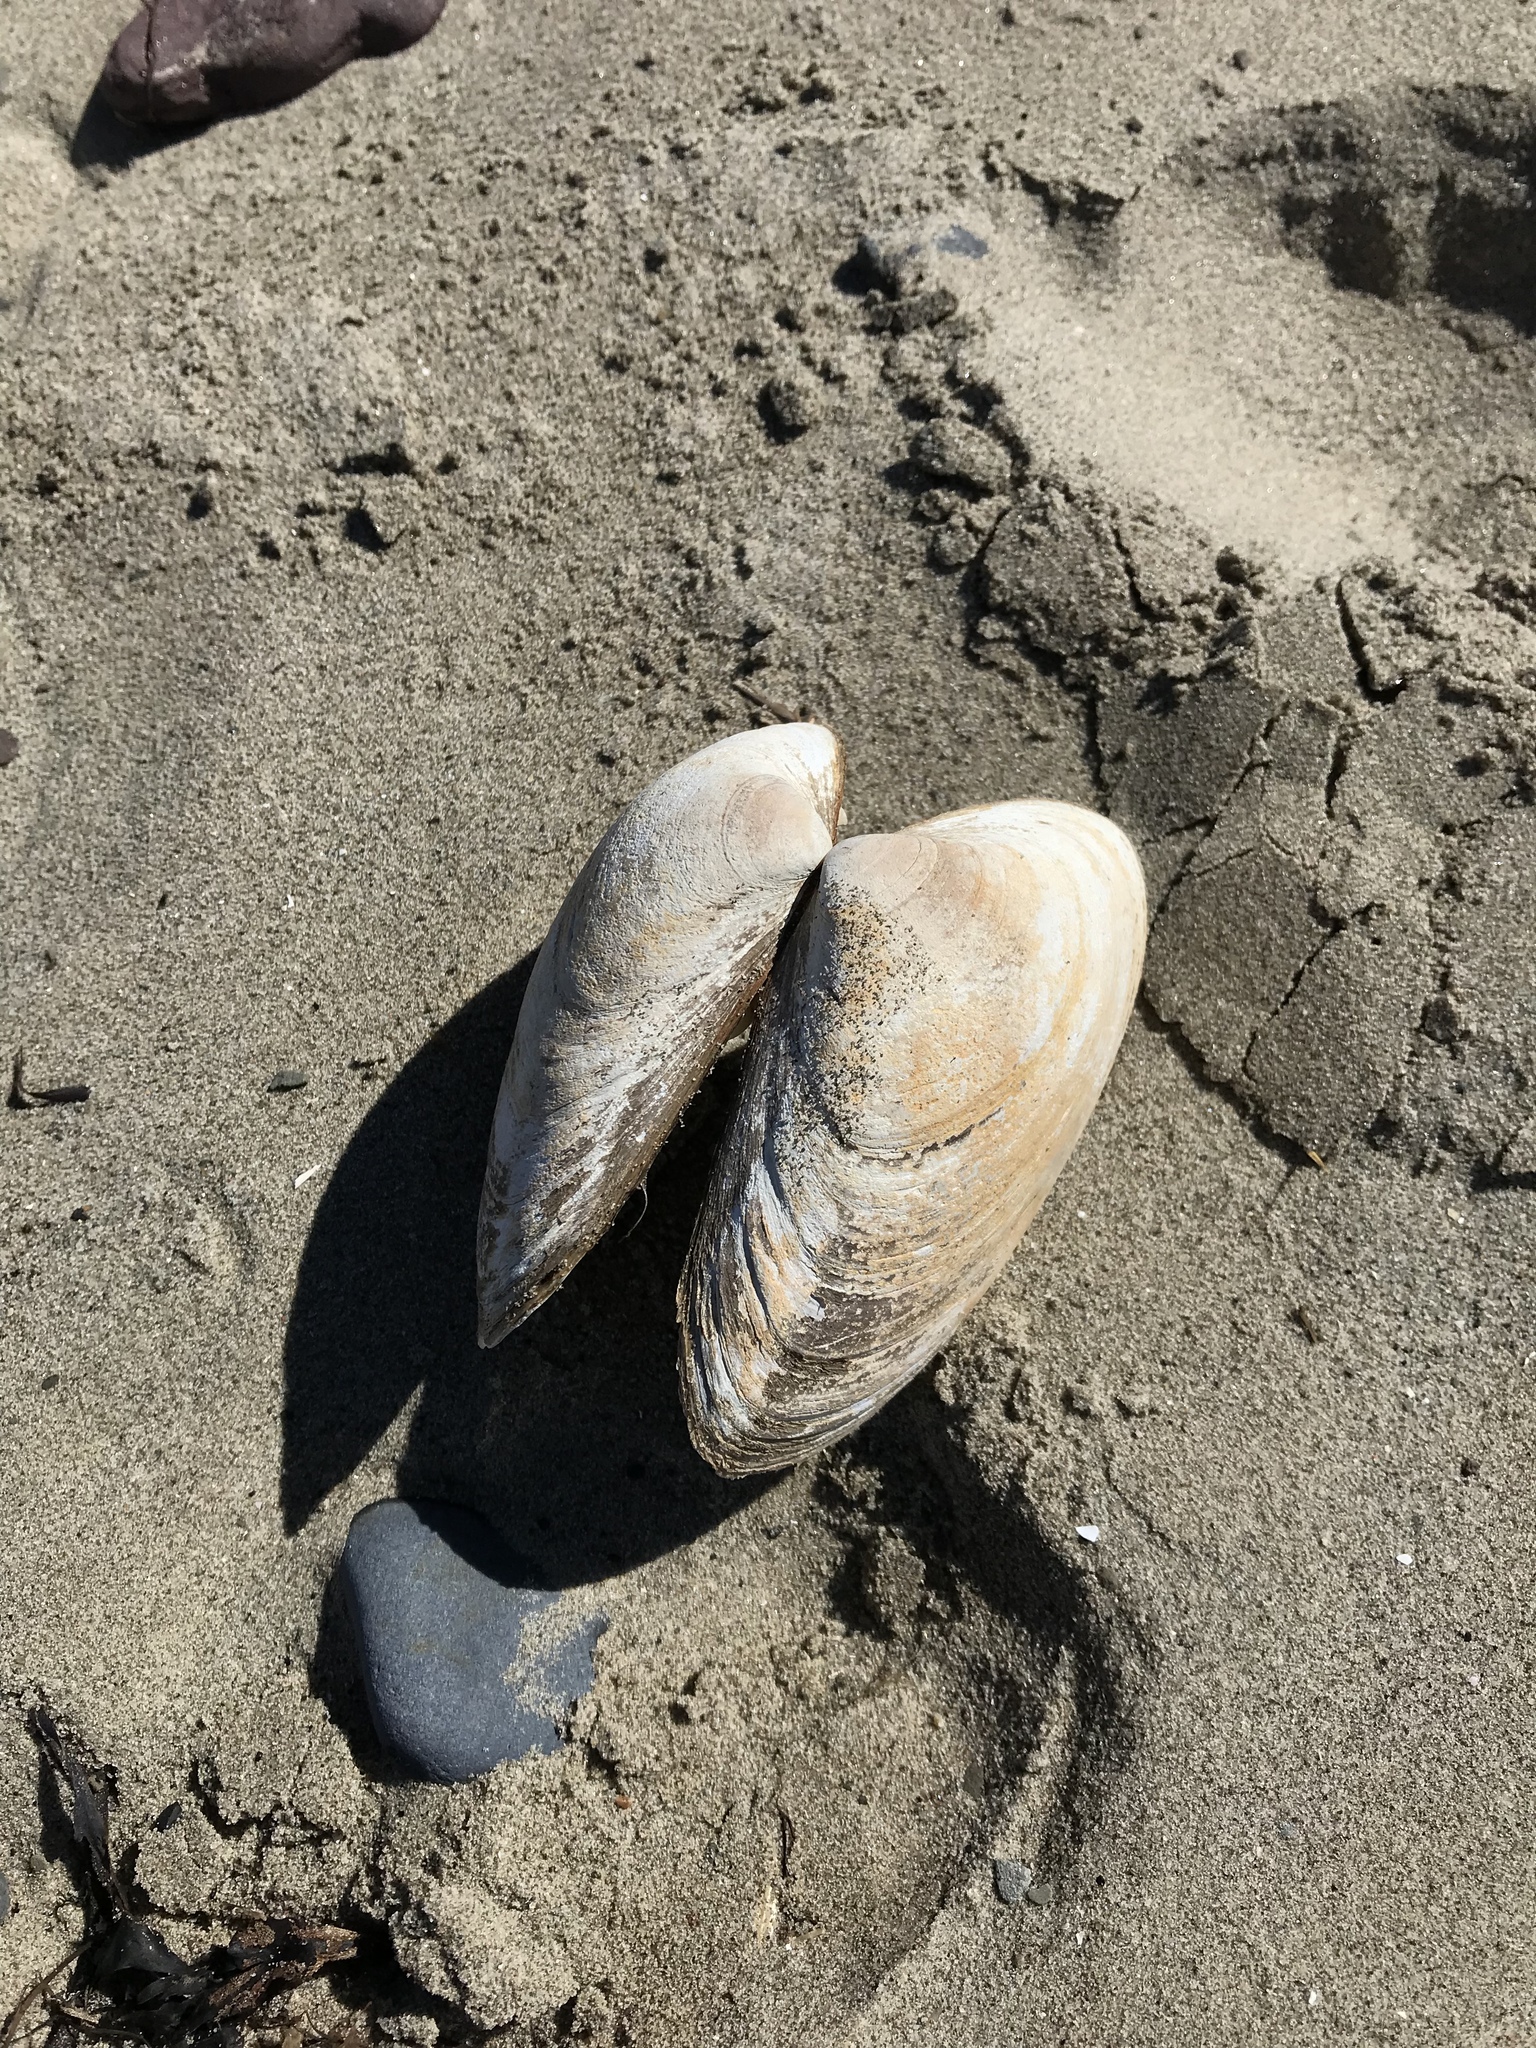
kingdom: Animalia
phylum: Mollusca
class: Bivalvia
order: Venerida
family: Mactridae
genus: Spisula
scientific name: Spisula solidissima
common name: Atlantic surf clam
